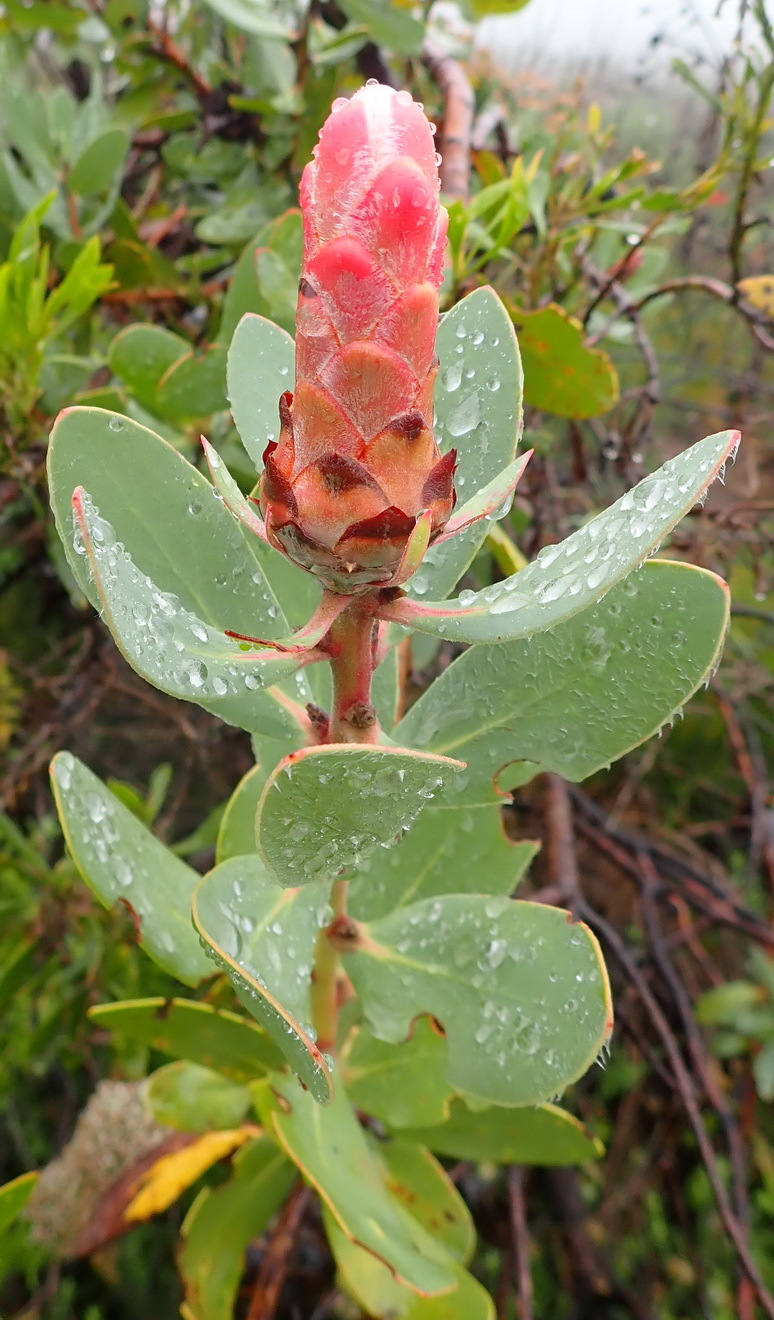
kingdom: Plantae
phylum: Tracheophyta
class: Magnoliopsida
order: Proteales
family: Proteaceae
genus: Protea
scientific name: Protea punctata
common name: Water sugarbush
